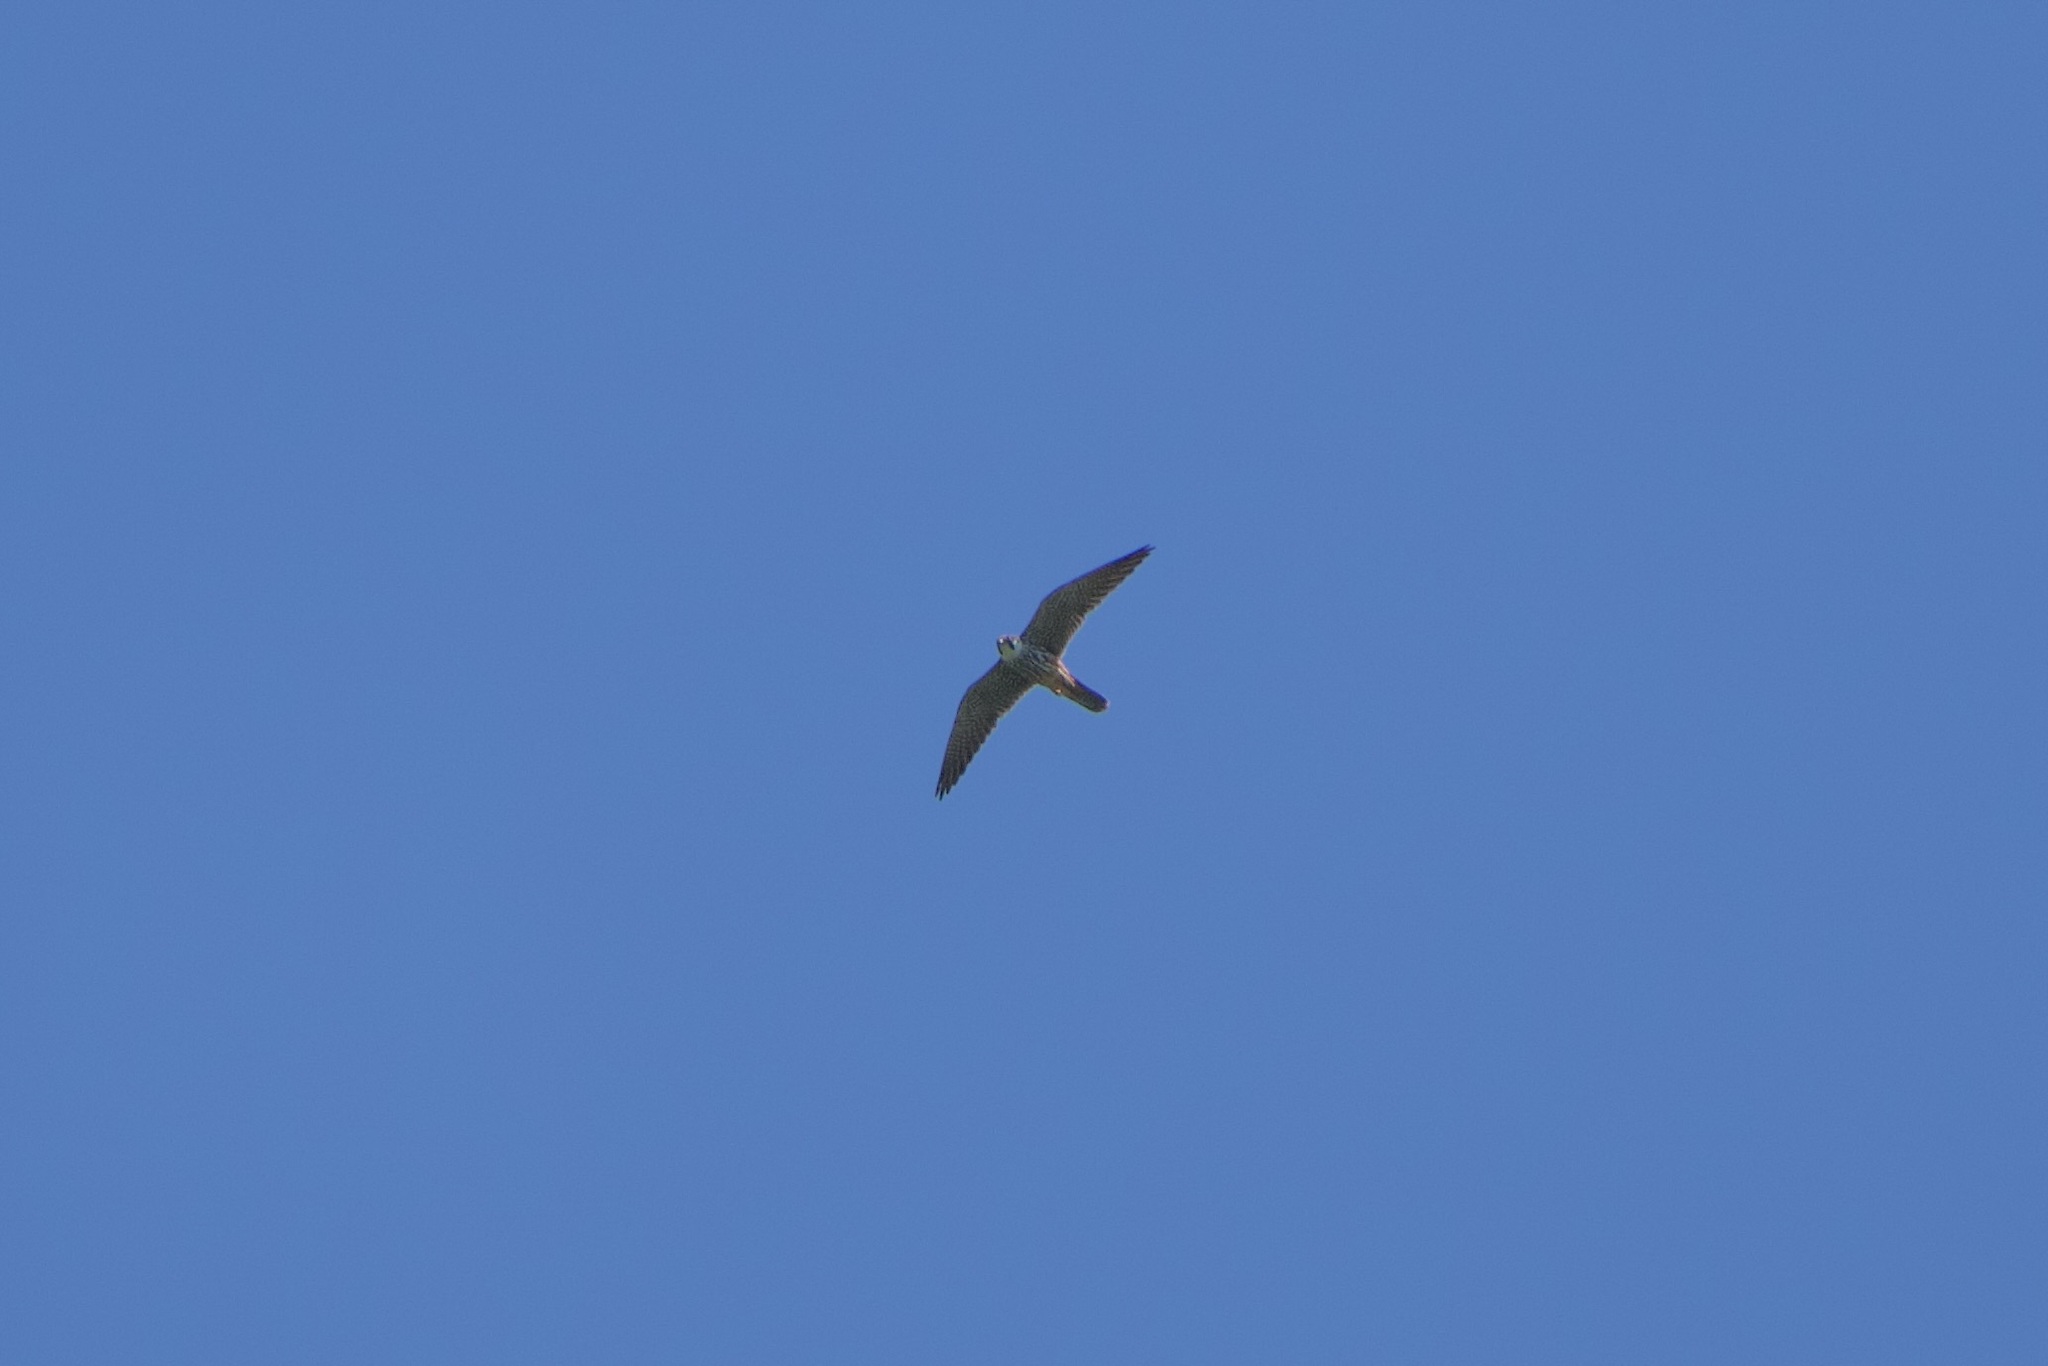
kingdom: Animalia
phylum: Chordata
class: Aves
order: Falconiformes
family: Falconidae
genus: Falco
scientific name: Falco subbuteo
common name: Eurasian hobby
